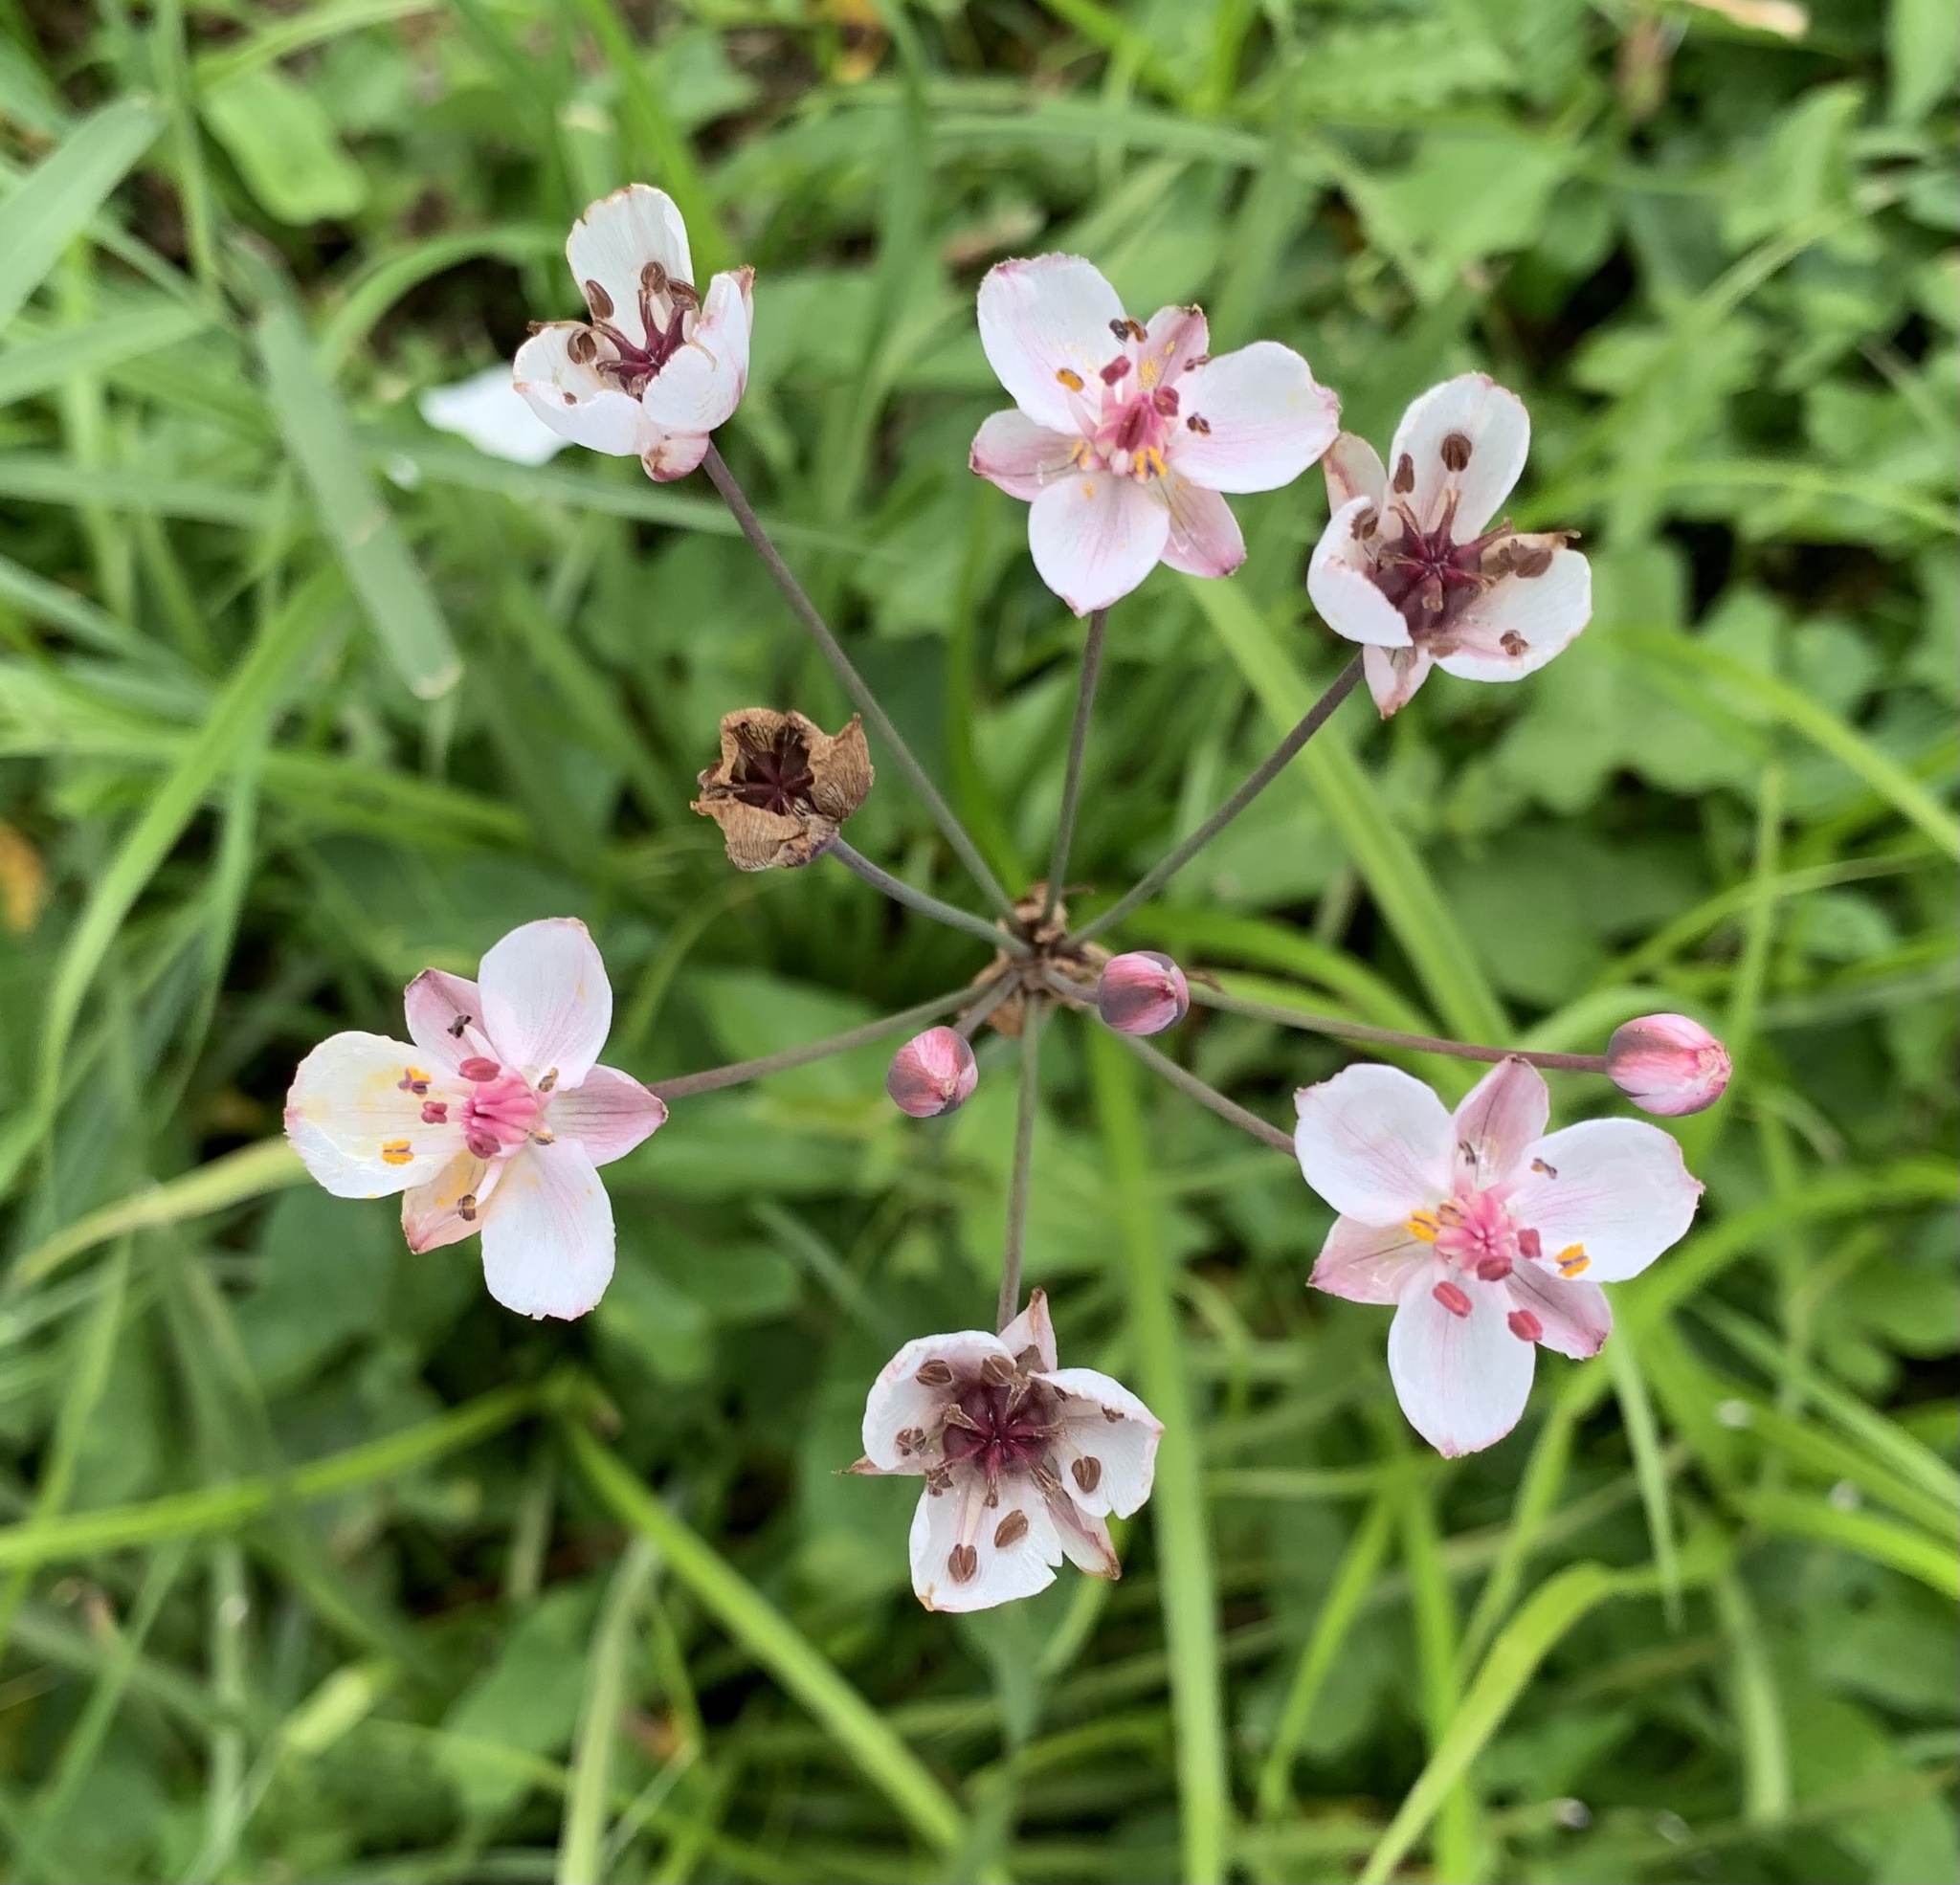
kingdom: Plantae
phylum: Tracheophyta
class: Liliopsida
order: Alismatales
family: Butomaceae
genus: Butomus
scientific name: Butomus umbellatus
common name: Flowering-rush
